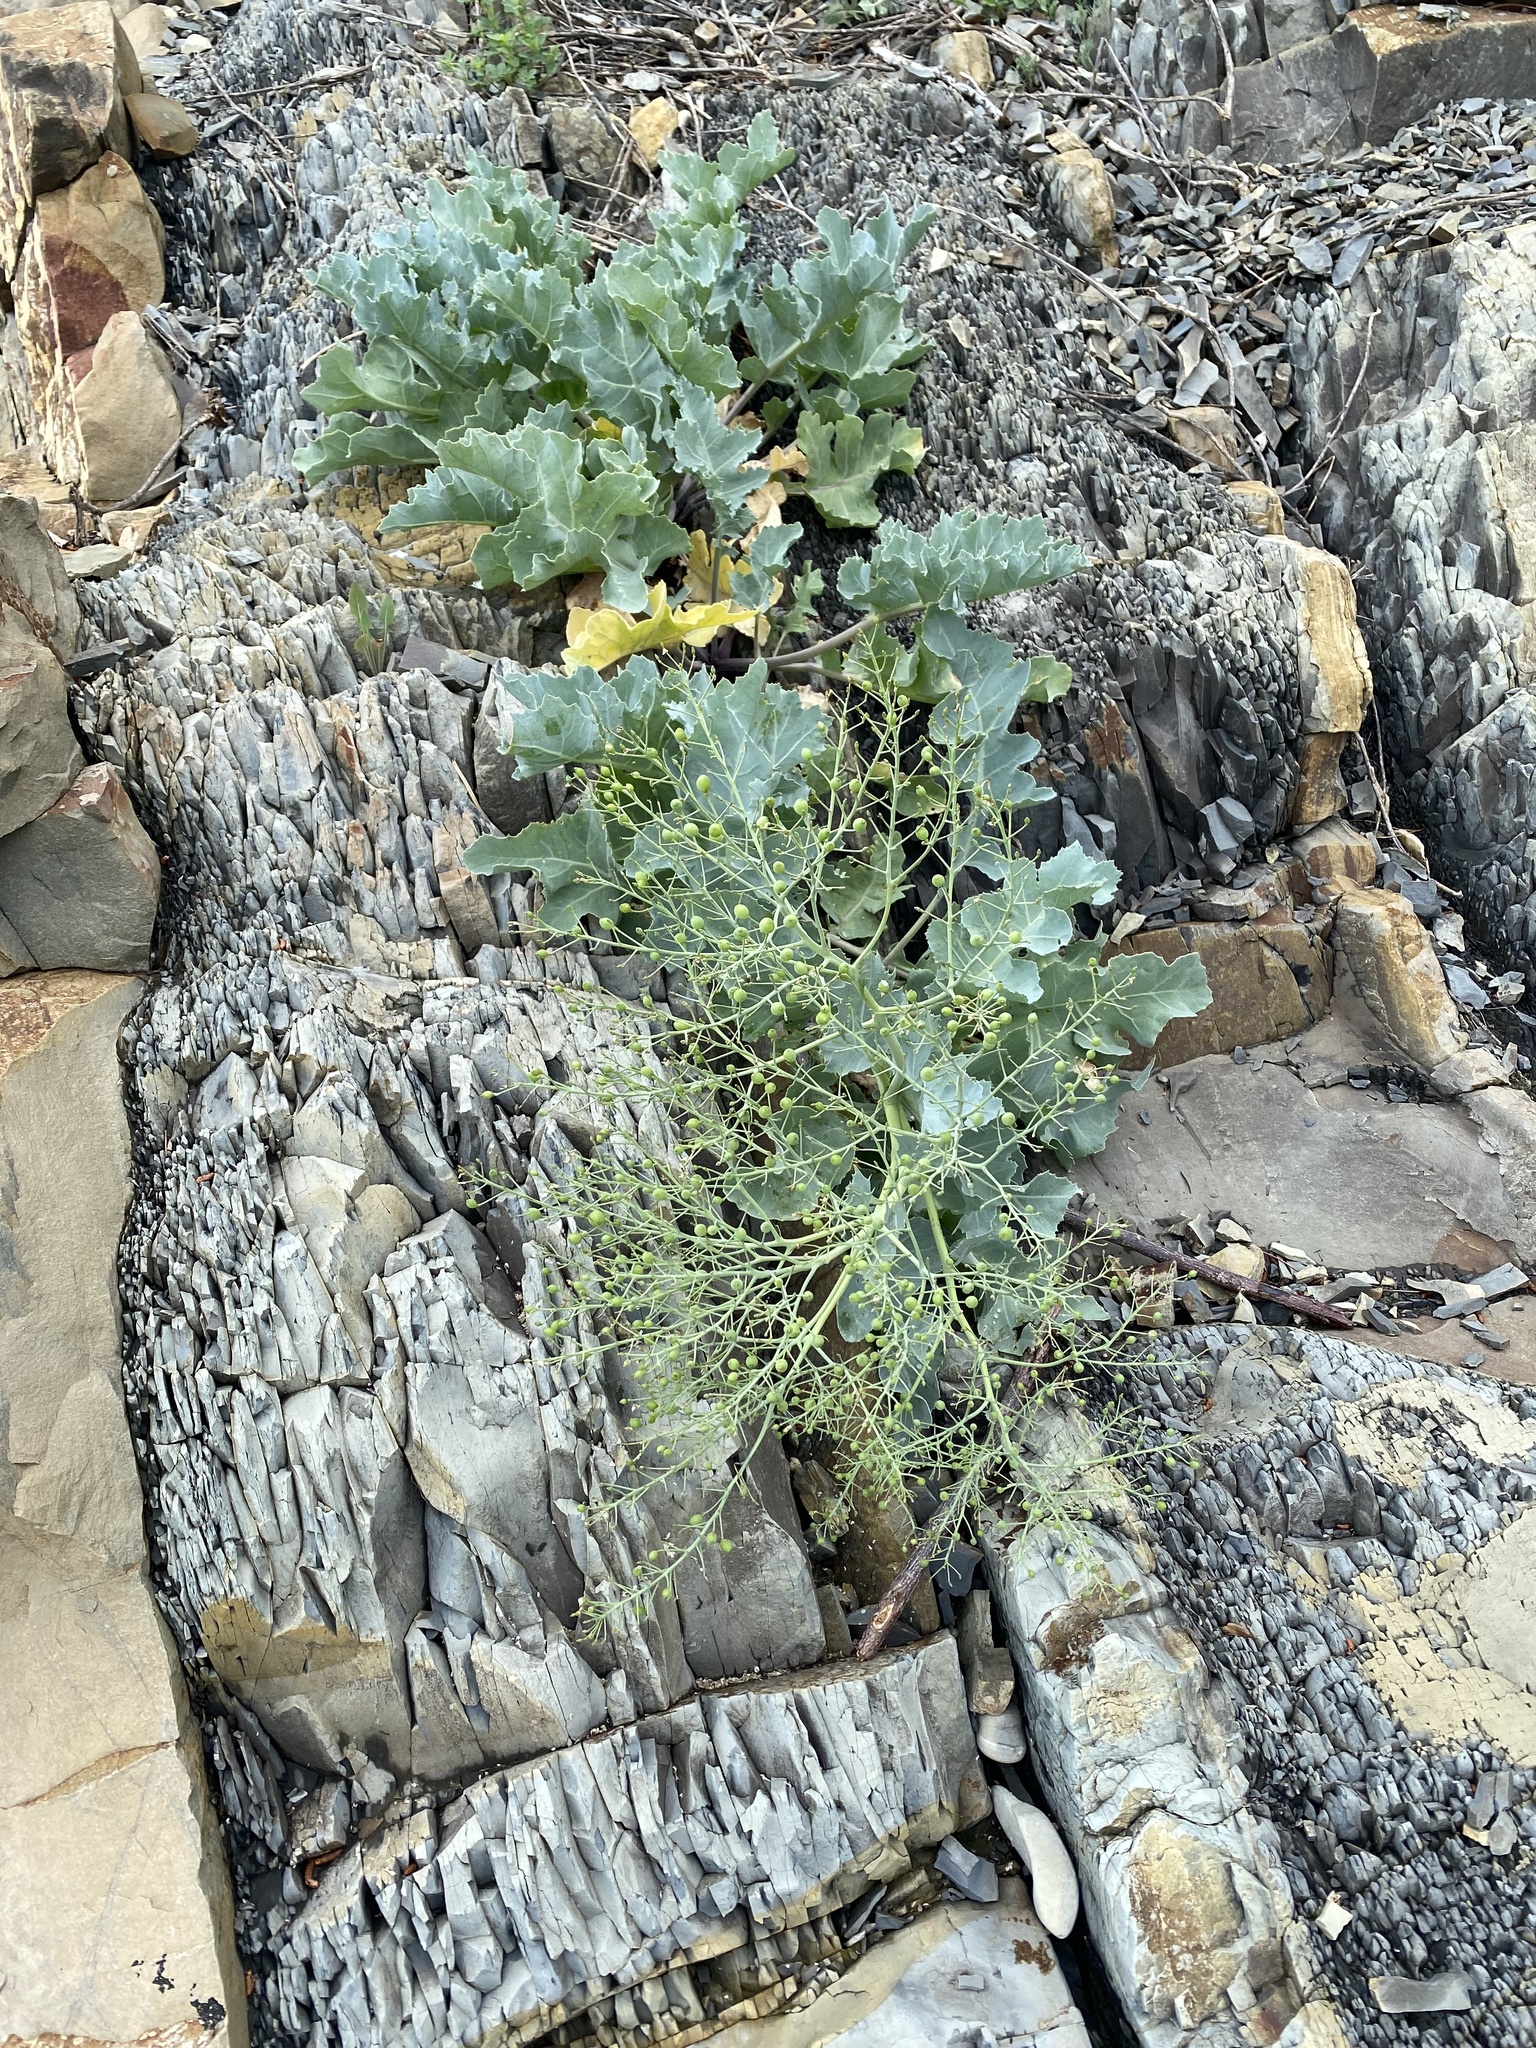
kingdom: Plantae
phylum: Tracheophyta
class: Magnoliopsida
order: Ranunculales
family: Papaveraceae
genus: Glaucium
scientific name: Glaucium flavum
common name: Yellow horned-poppy
